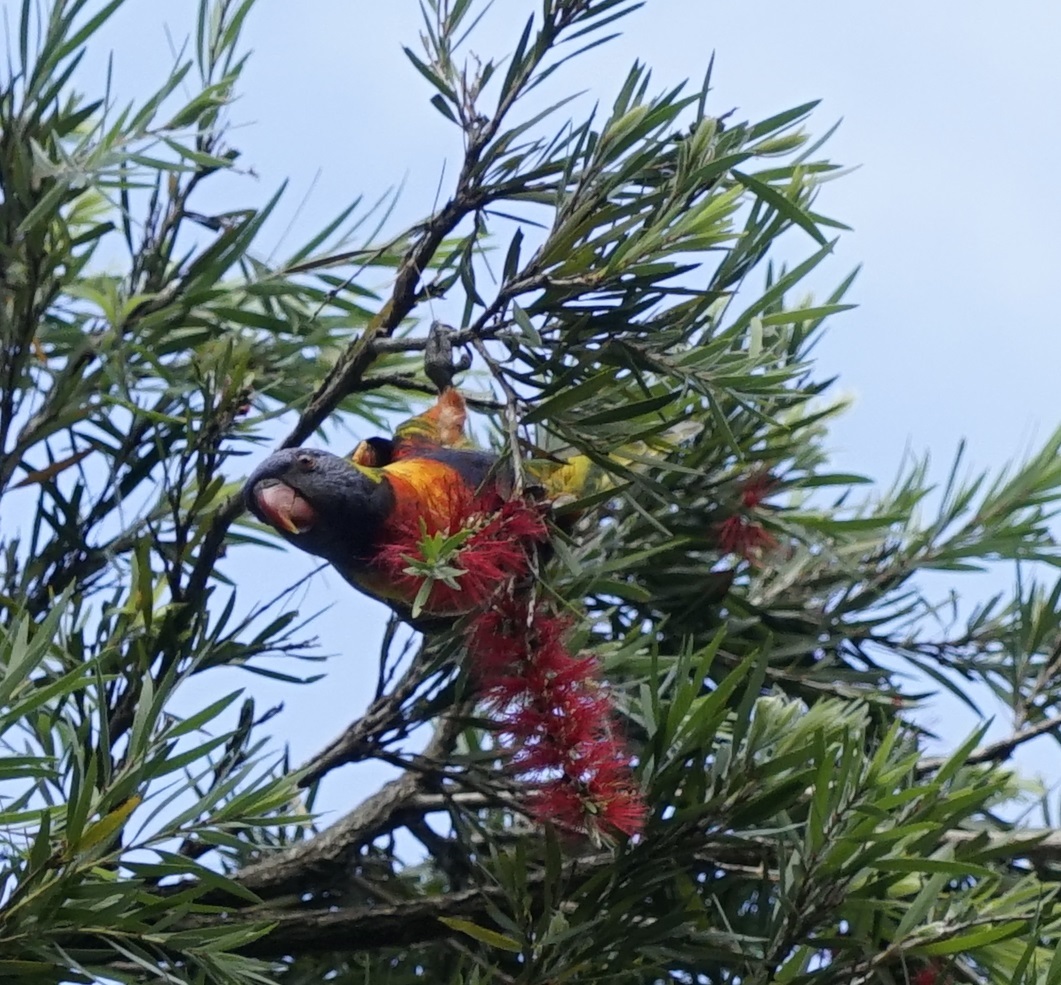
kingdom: Animalia
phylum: Chordata
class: Aves
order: Psittaciformes
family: Psittacidae
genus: Trichoglossus
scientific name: Trichoglossus haematodus
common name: Coconut lorikeet
